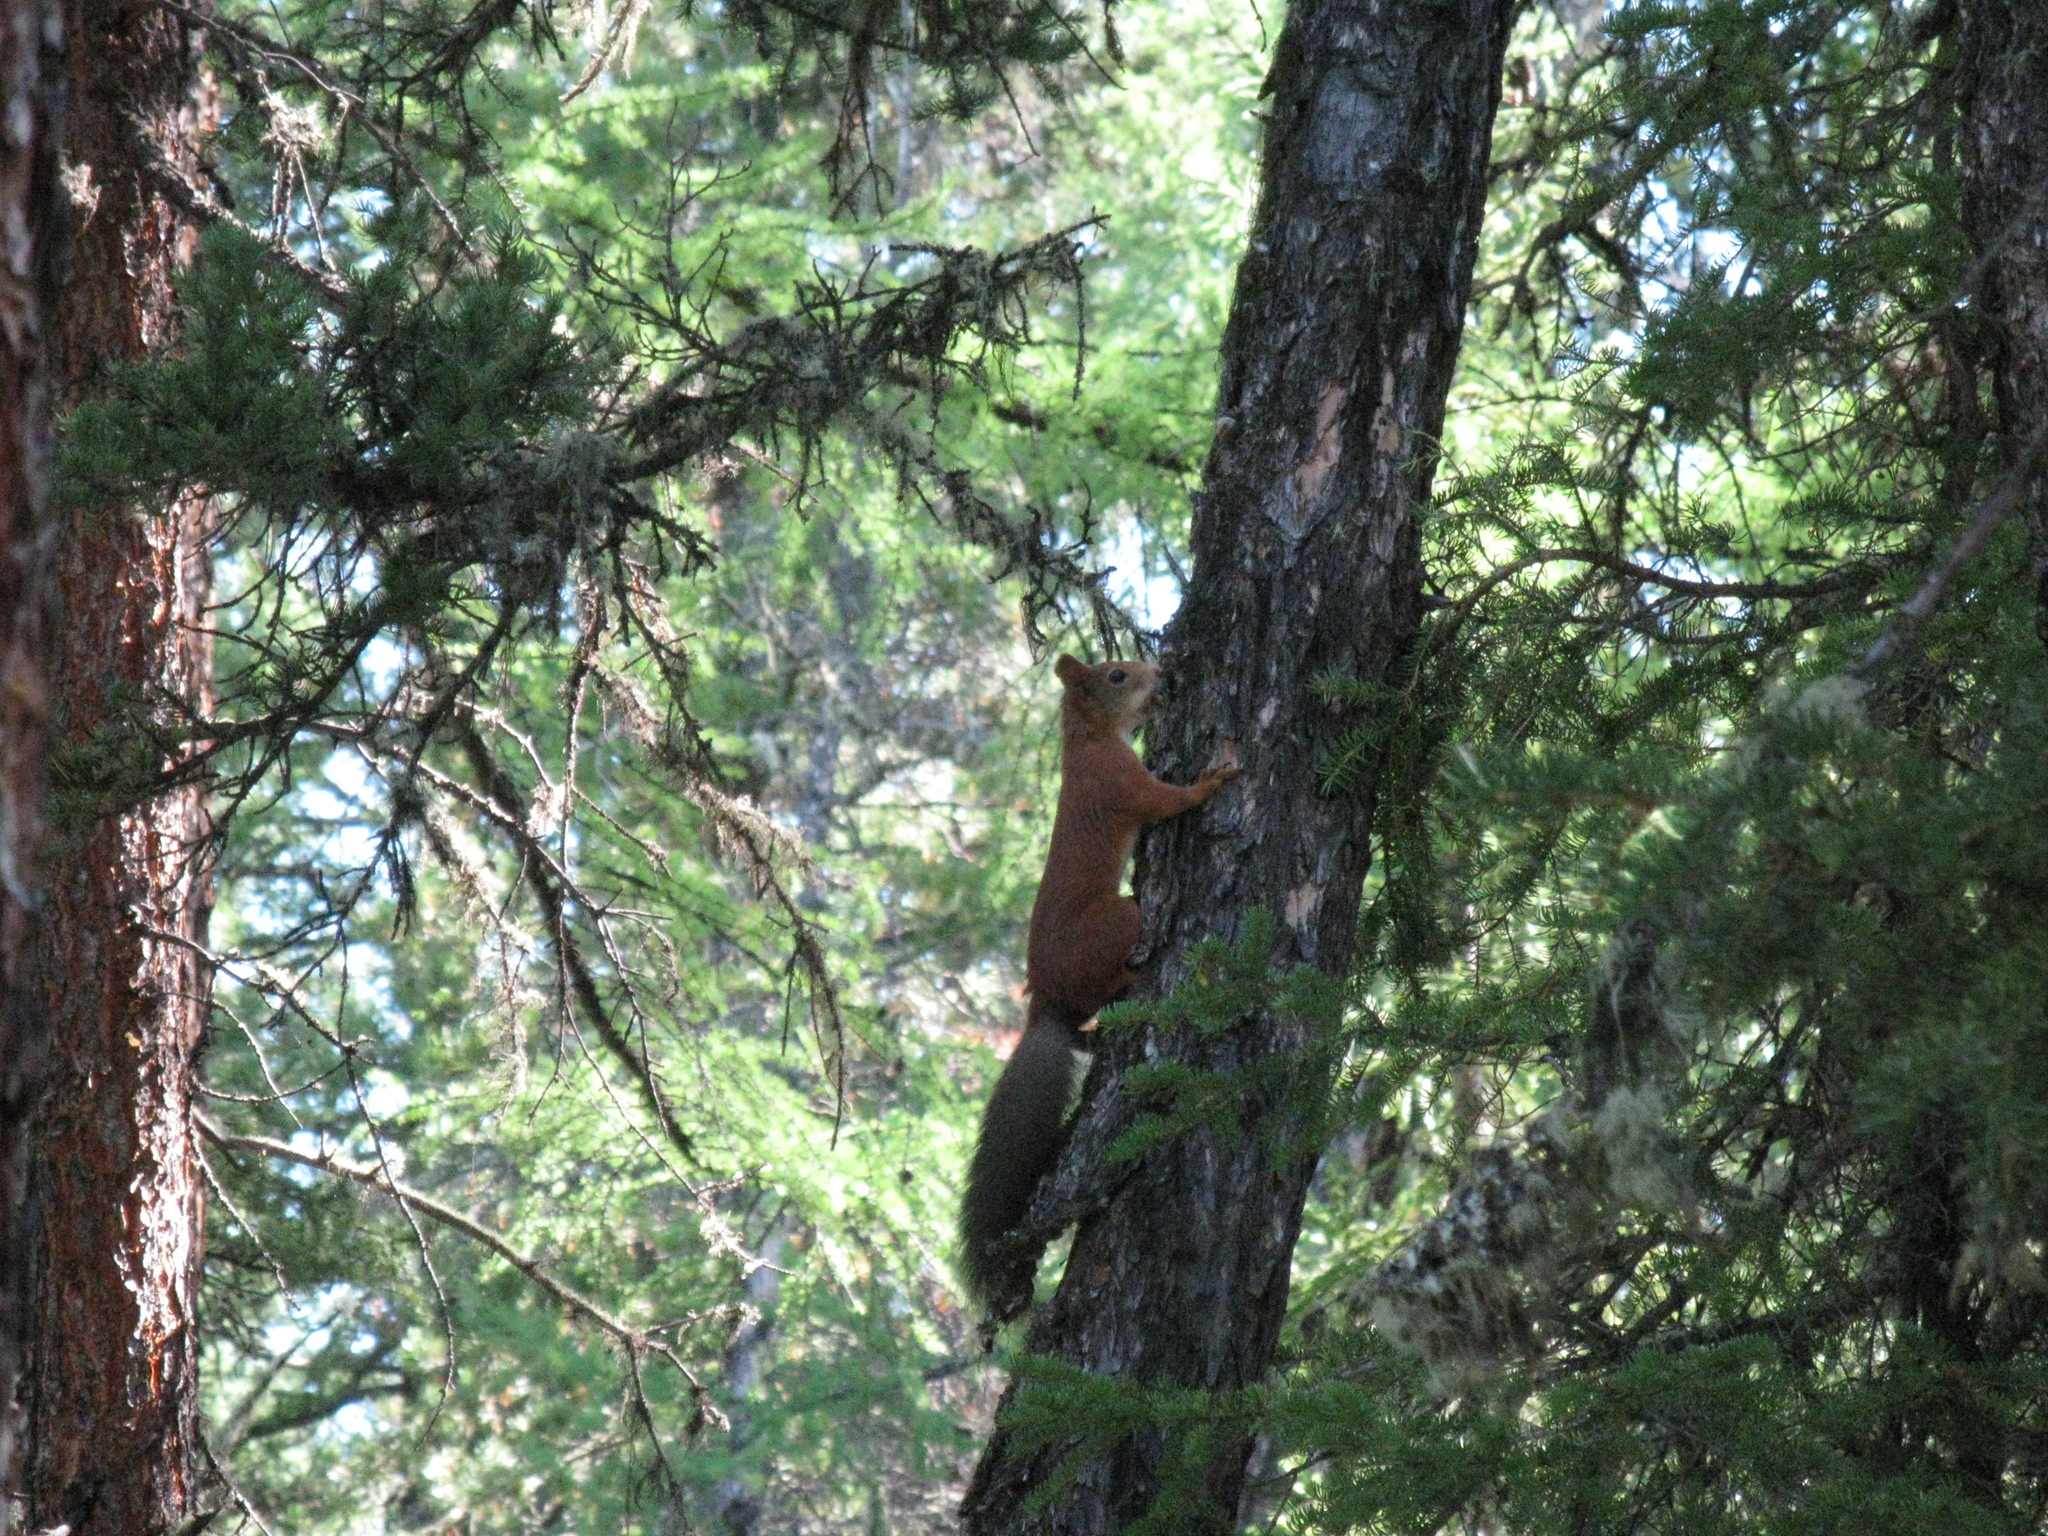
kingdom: Animalia
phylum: Chordata
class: Mammalia
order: Rodentia
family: Sciuridae
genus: Sciurus
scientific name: Sciurus vulgaris
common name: Eurasian red squirrel
